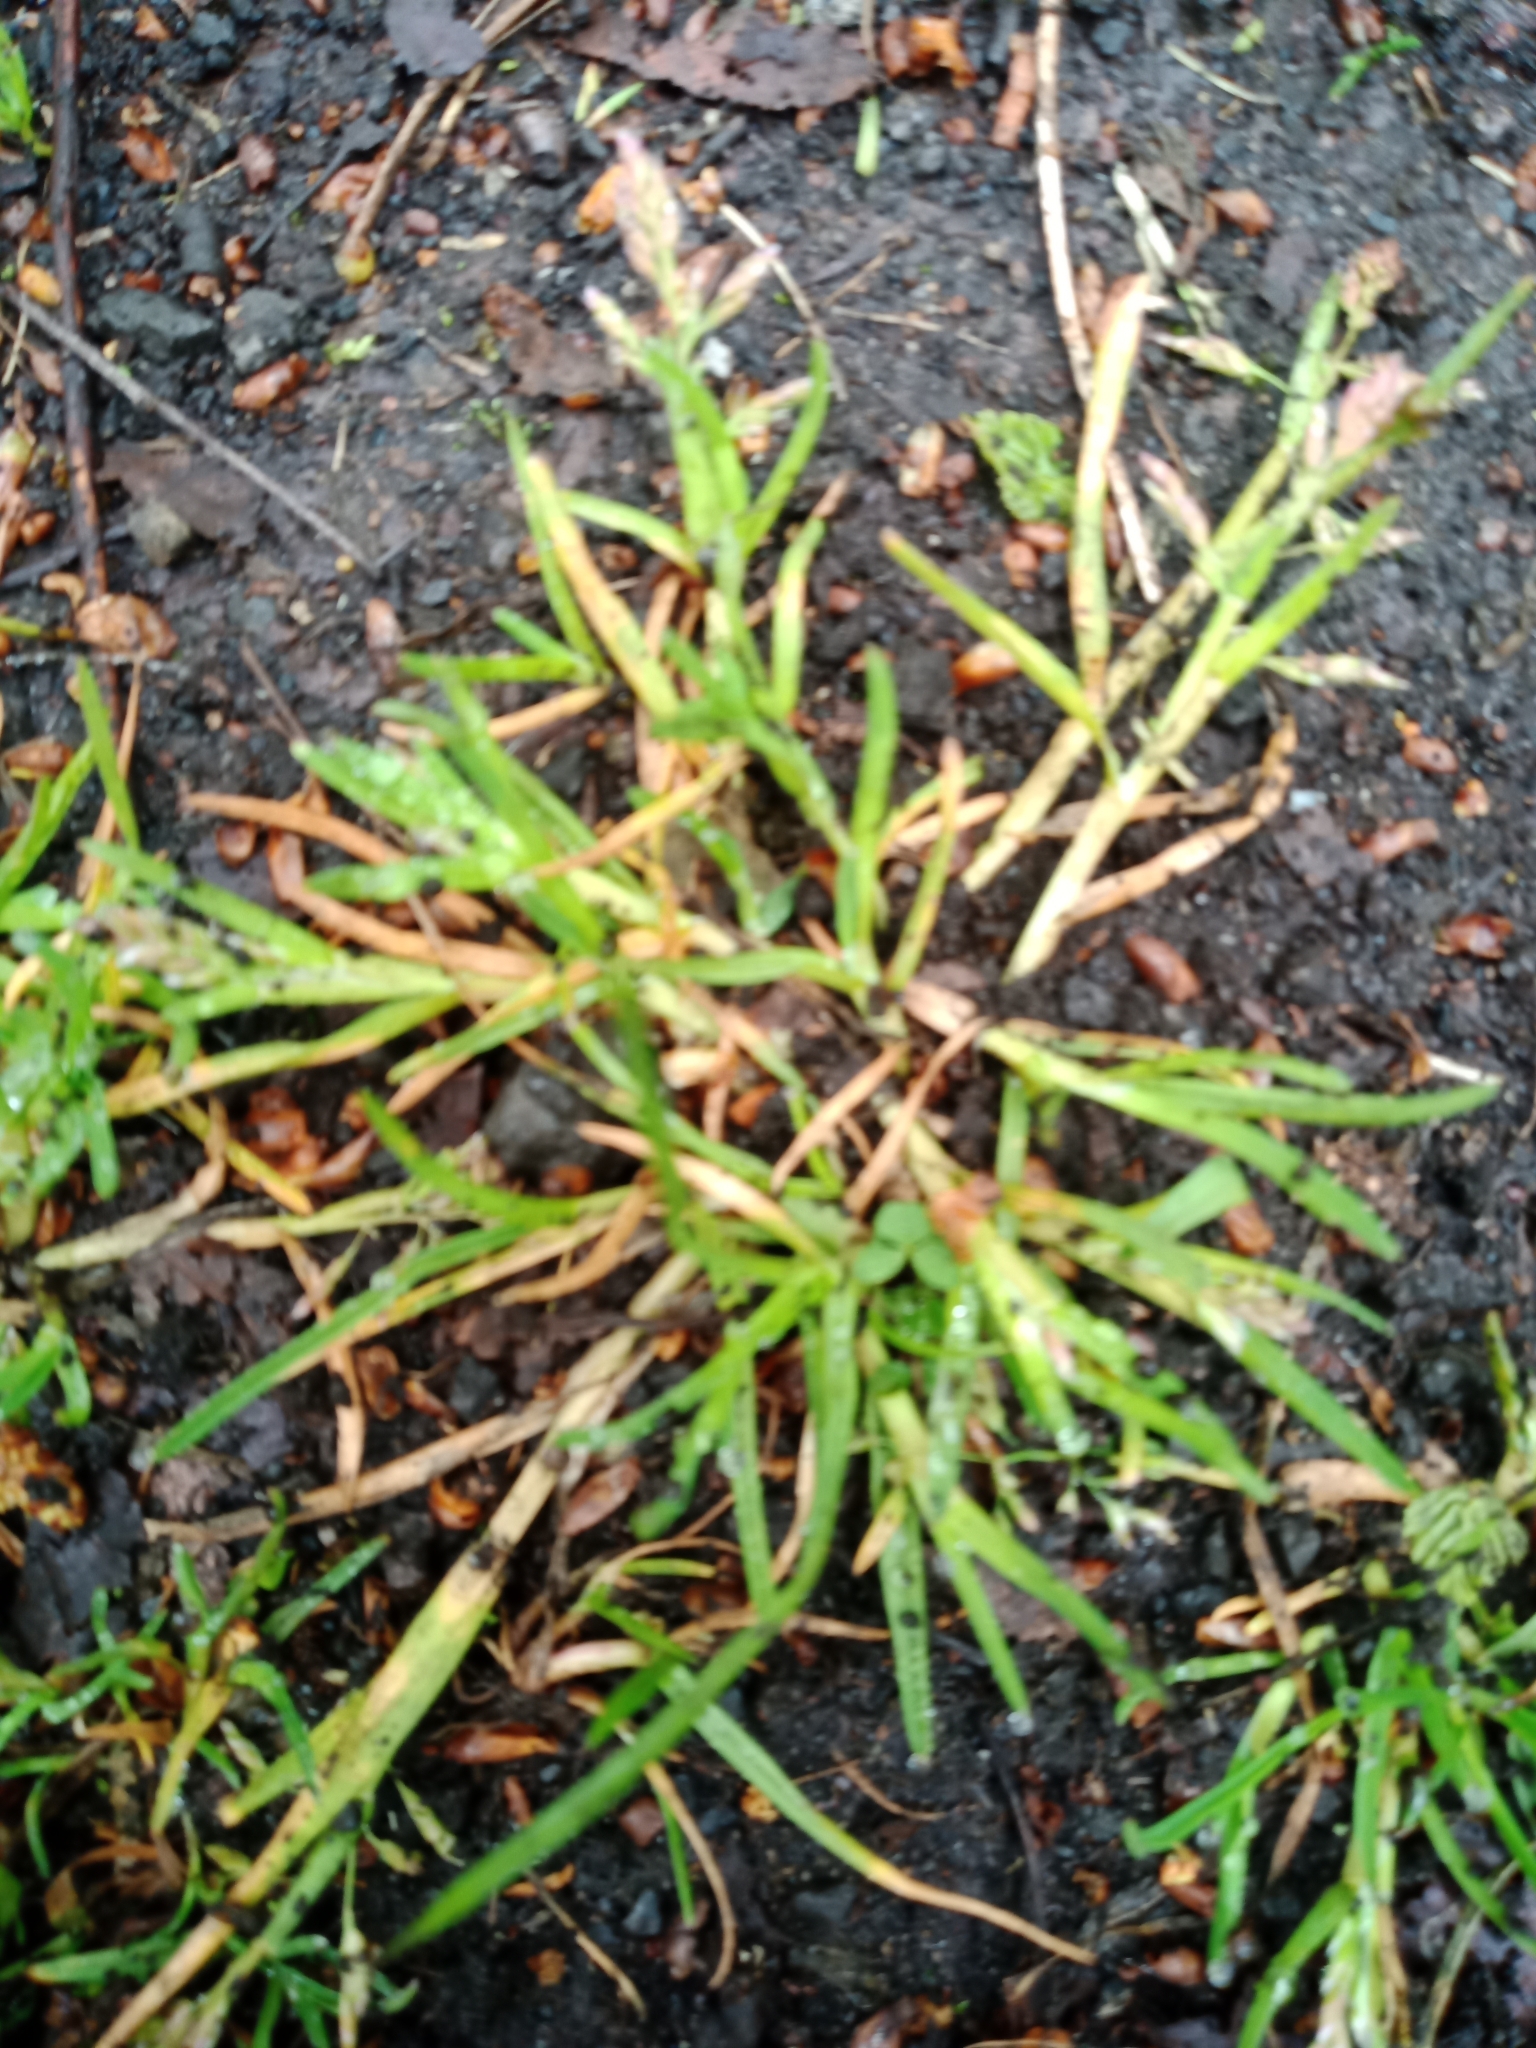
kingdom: Plantae
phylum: Tracheophyta
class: Liliopsida
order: Poales
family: Poaceae
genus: Poa
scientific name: Poa annua
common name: Annual bluegrass
